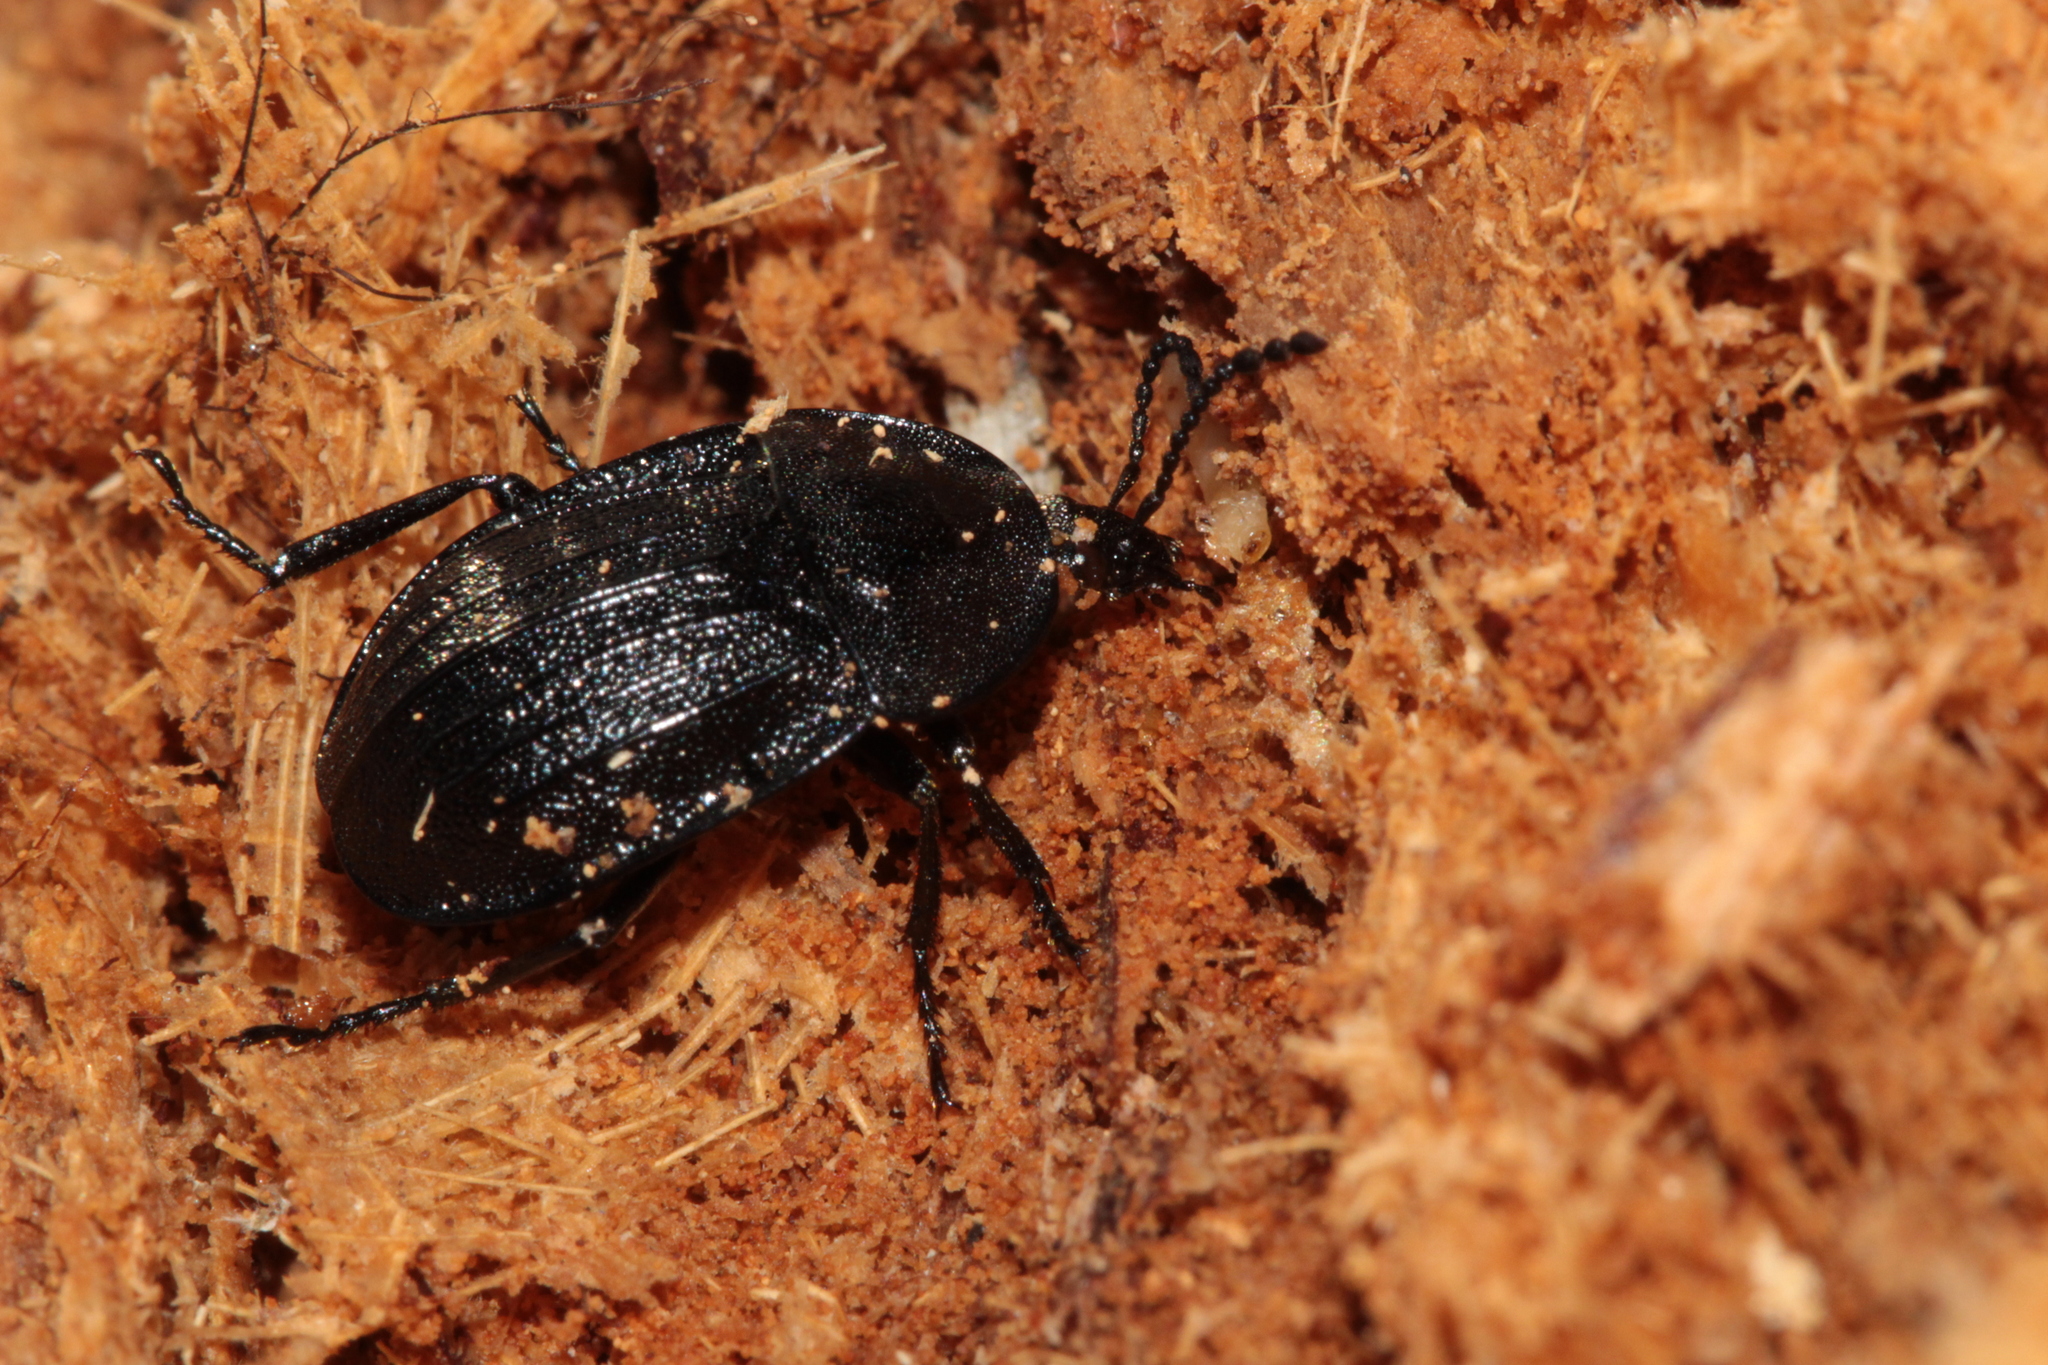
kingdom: Animalia
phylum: Arthropoda
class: Insecta
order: Coleoptera
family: Staphylinidae
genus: Silpha
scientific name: Silpha atrata
